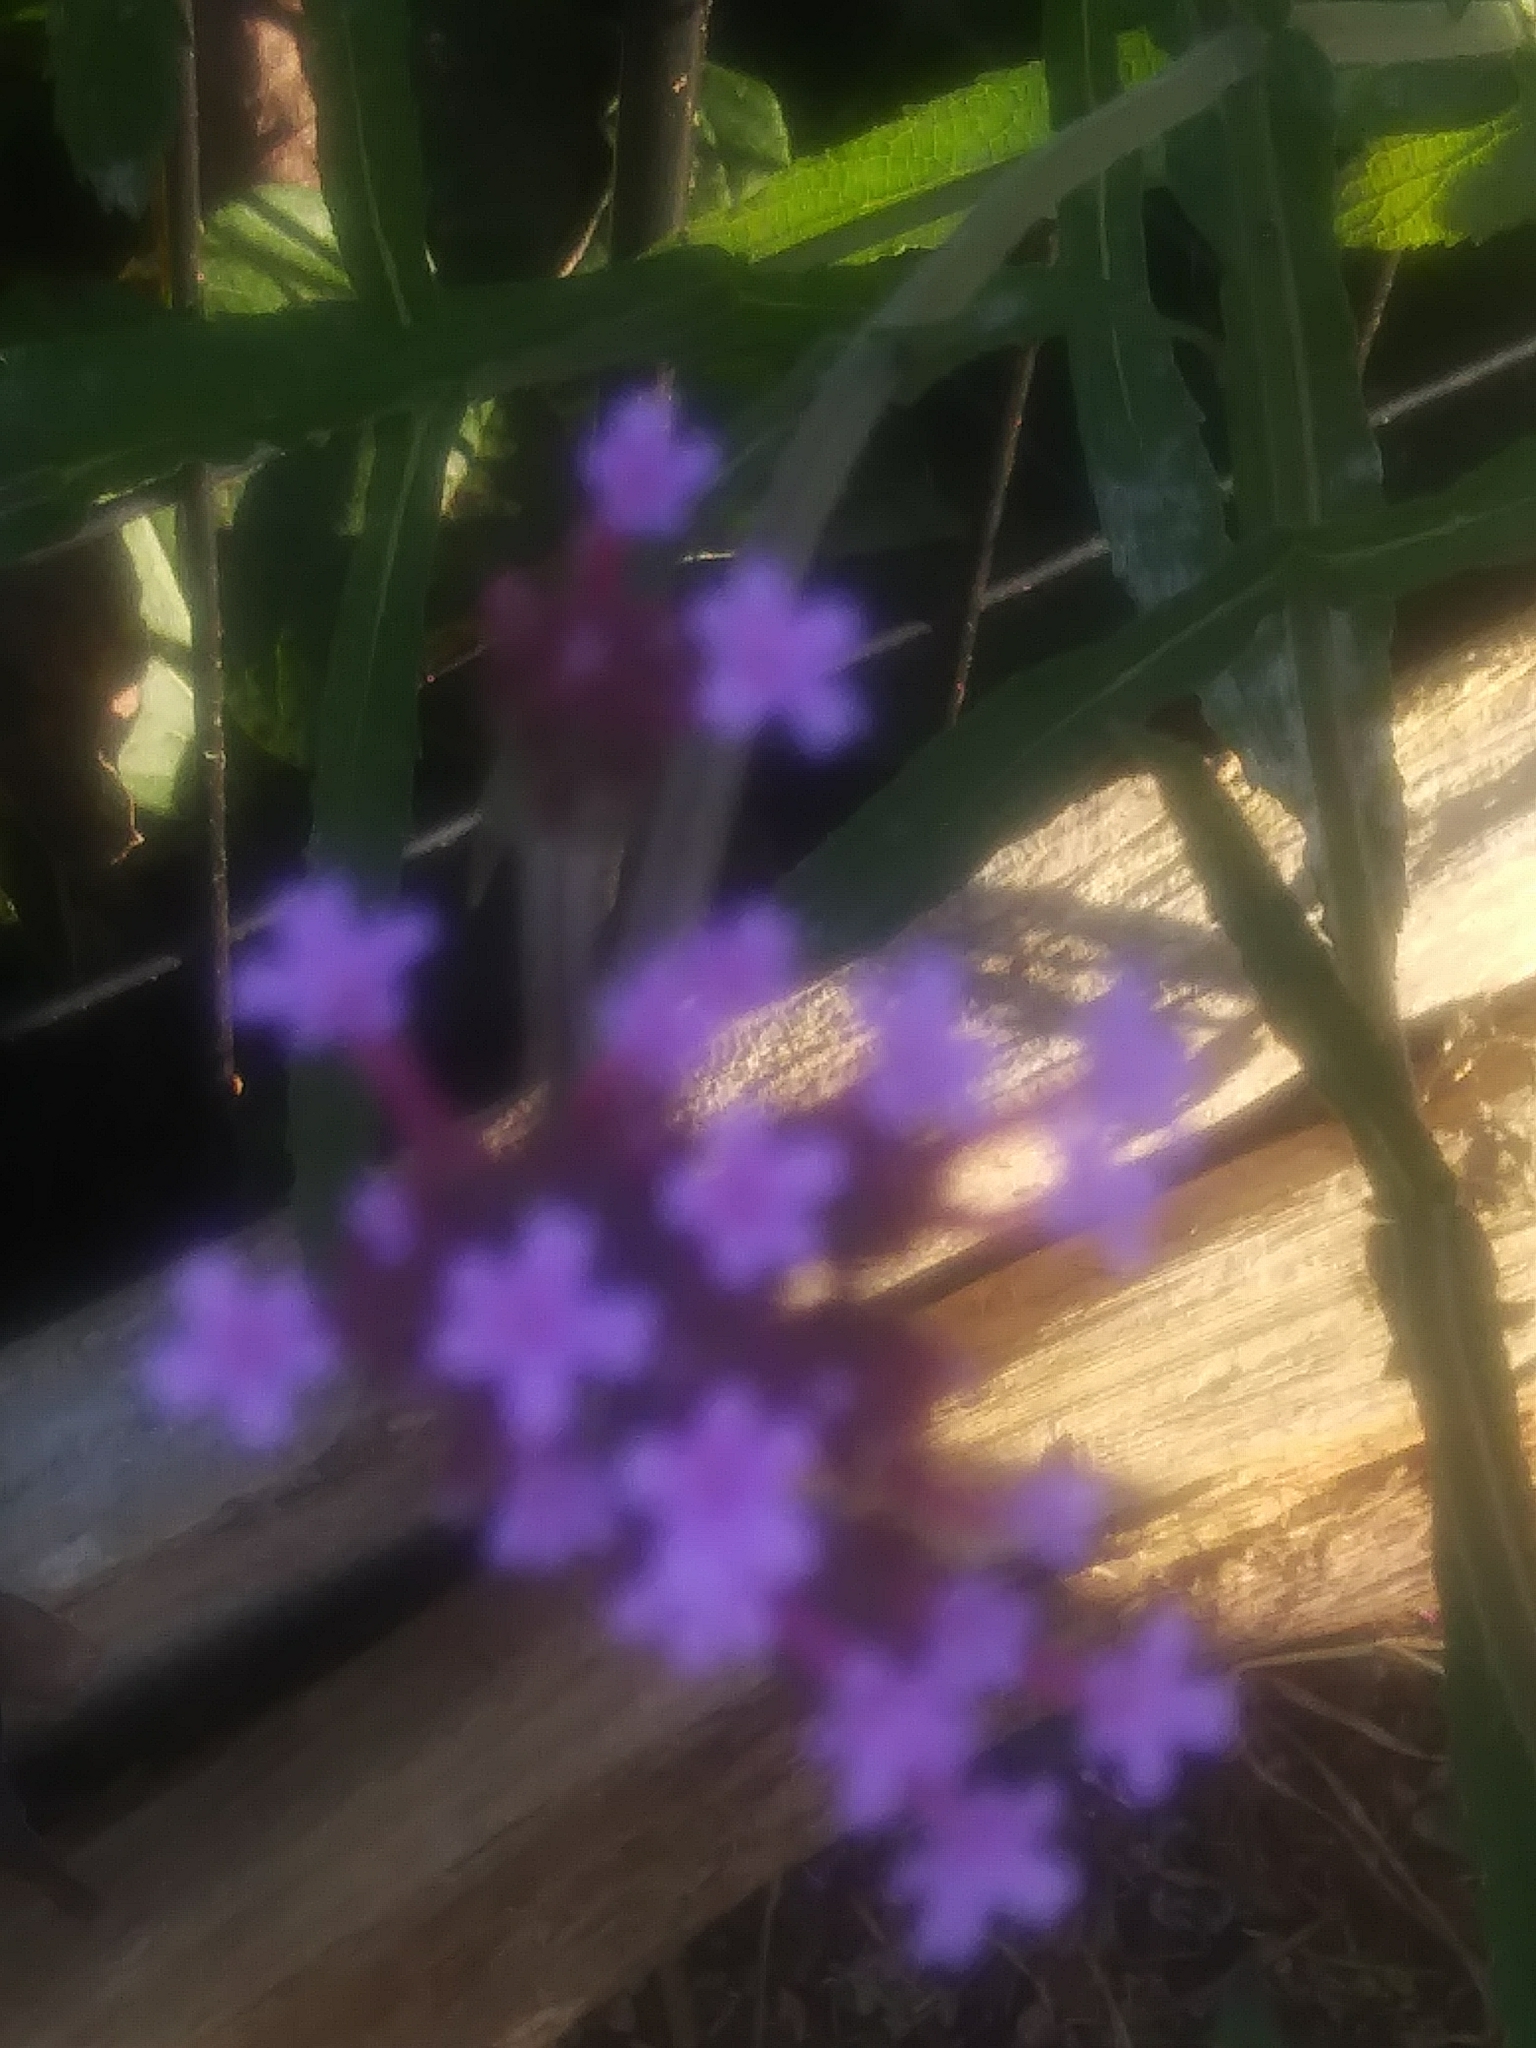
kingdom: Plantae
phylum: Tracheophyta
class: Magnoliopsida
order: Lamiales
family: Verbenaceae
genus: Verbena
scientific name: Verbena bonariensis
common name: Purpletop vervain
